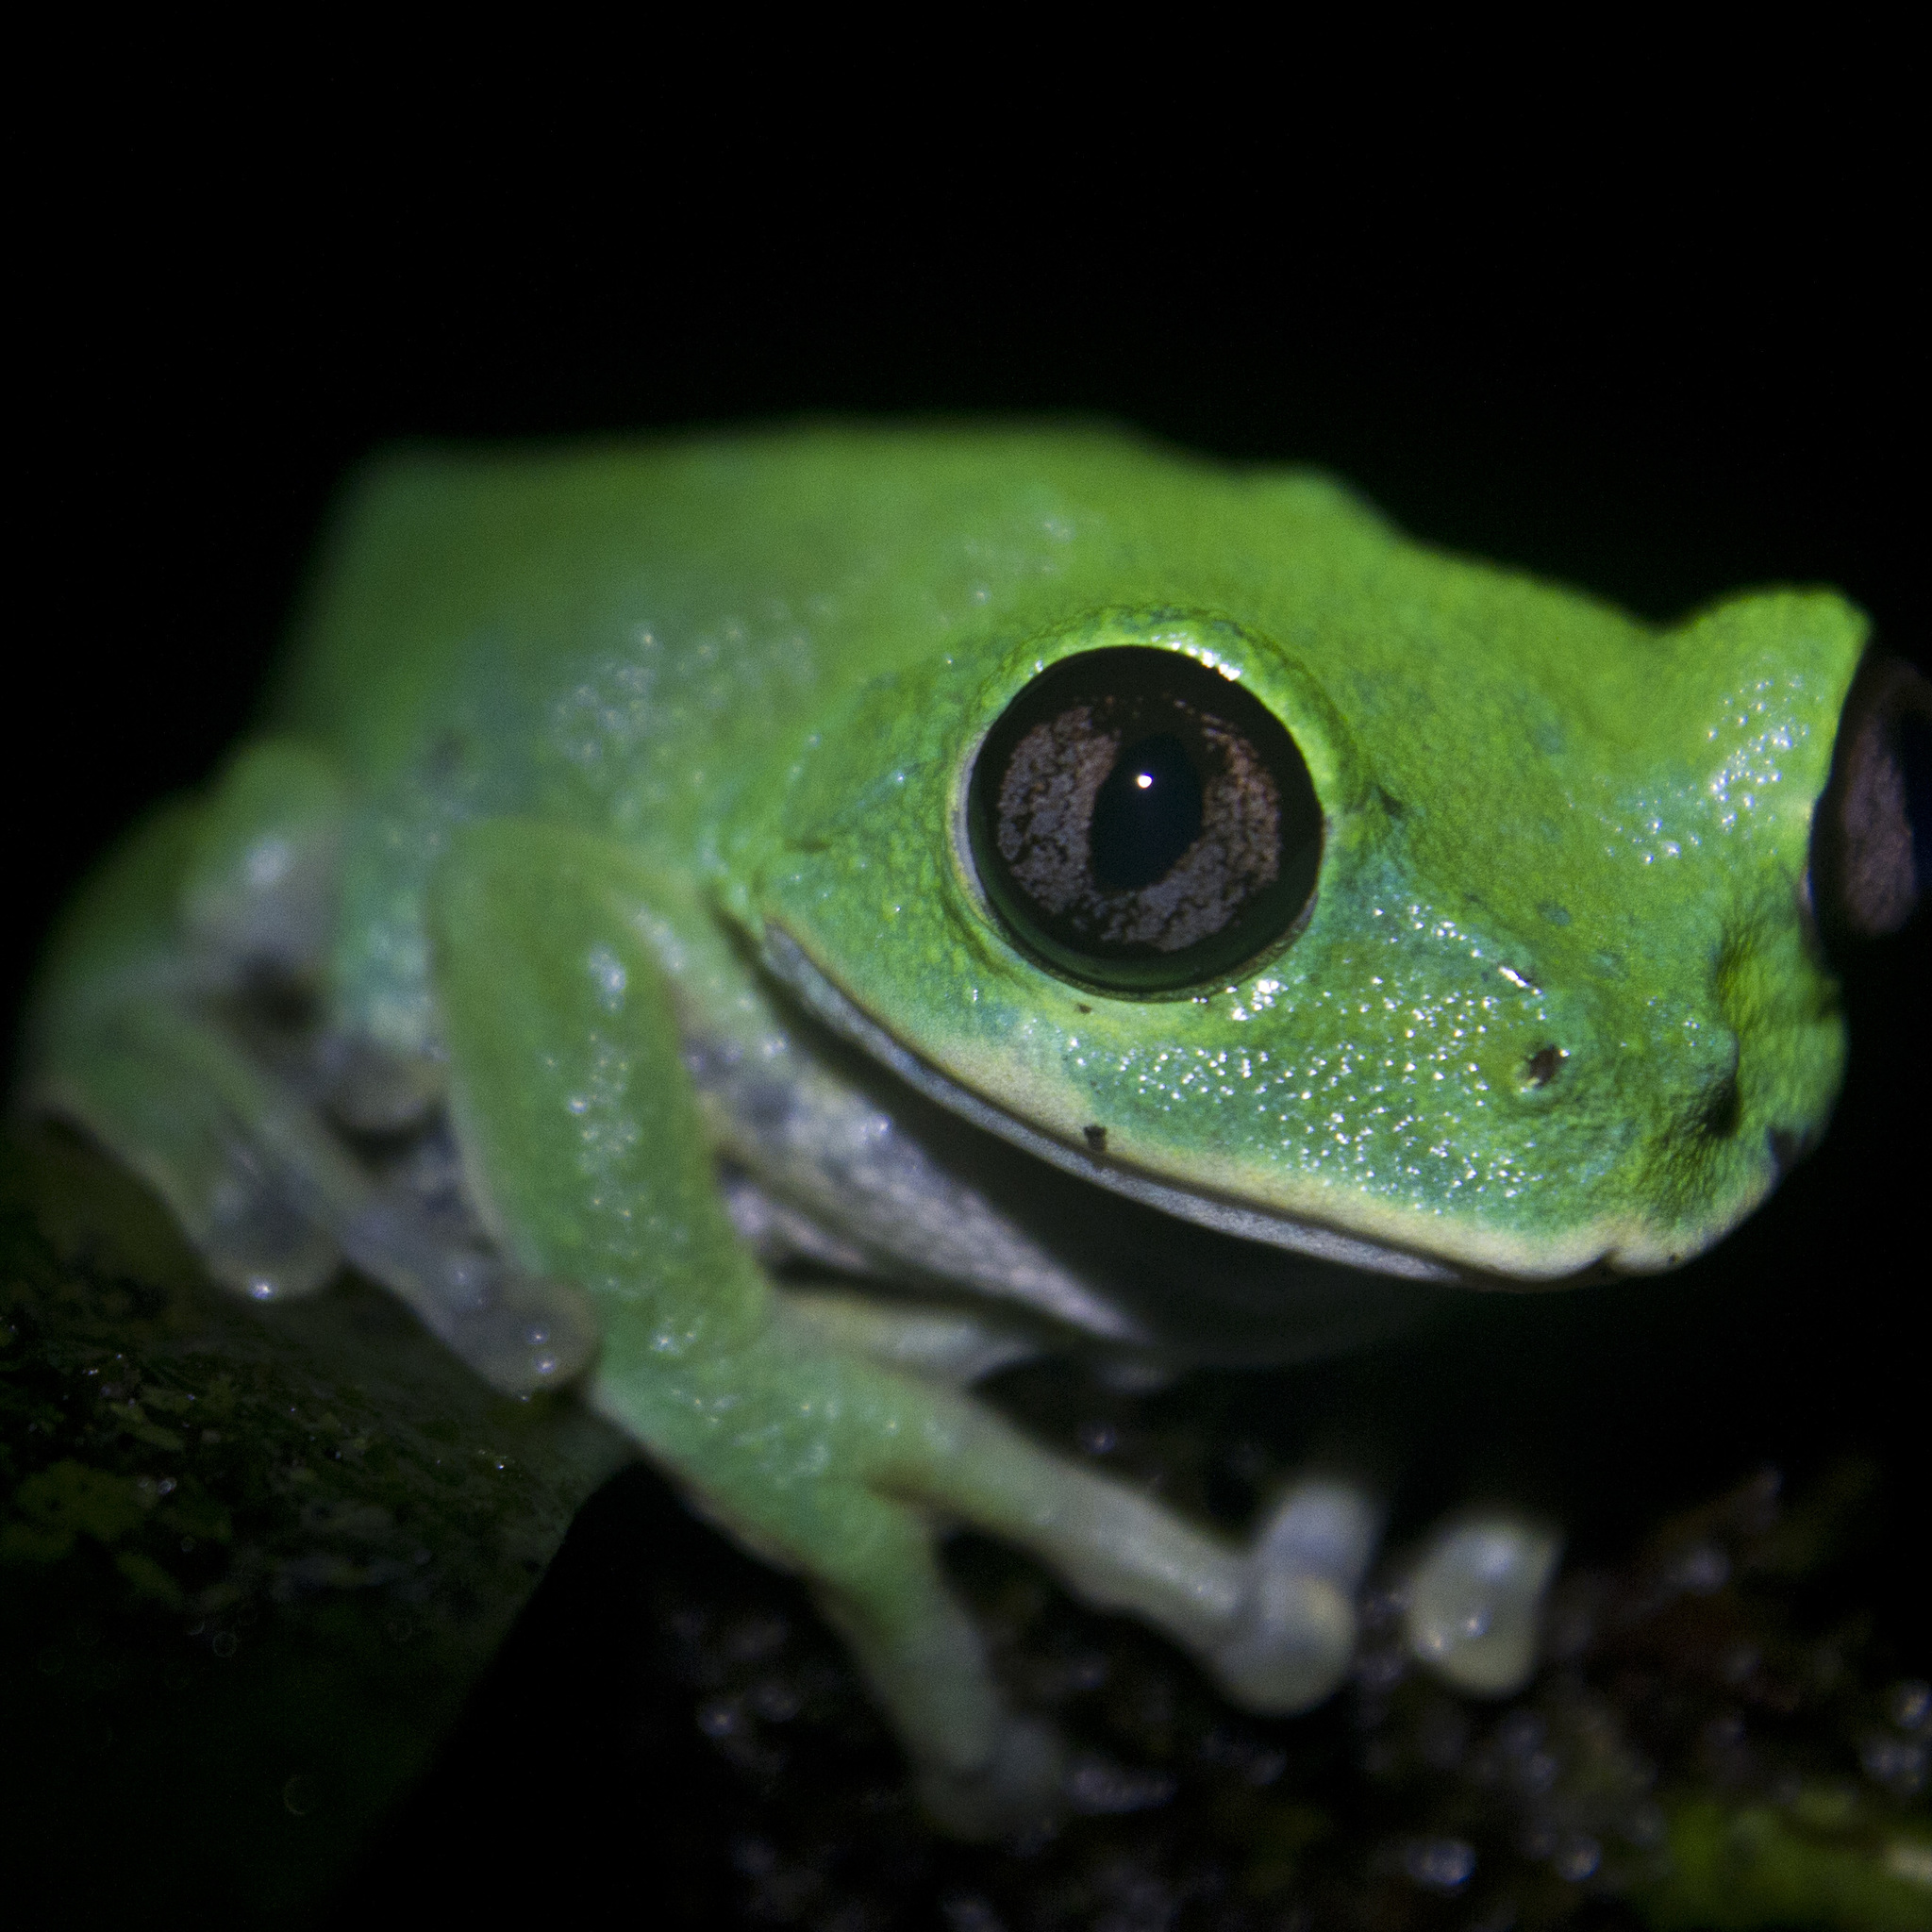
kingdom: Animalia
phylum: Chordata
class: Amphibia
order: Anura
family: Arthroleptidae
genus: Leptopelis
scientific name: Leptopelis brevirostris
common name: Cameroon forest treefrog
